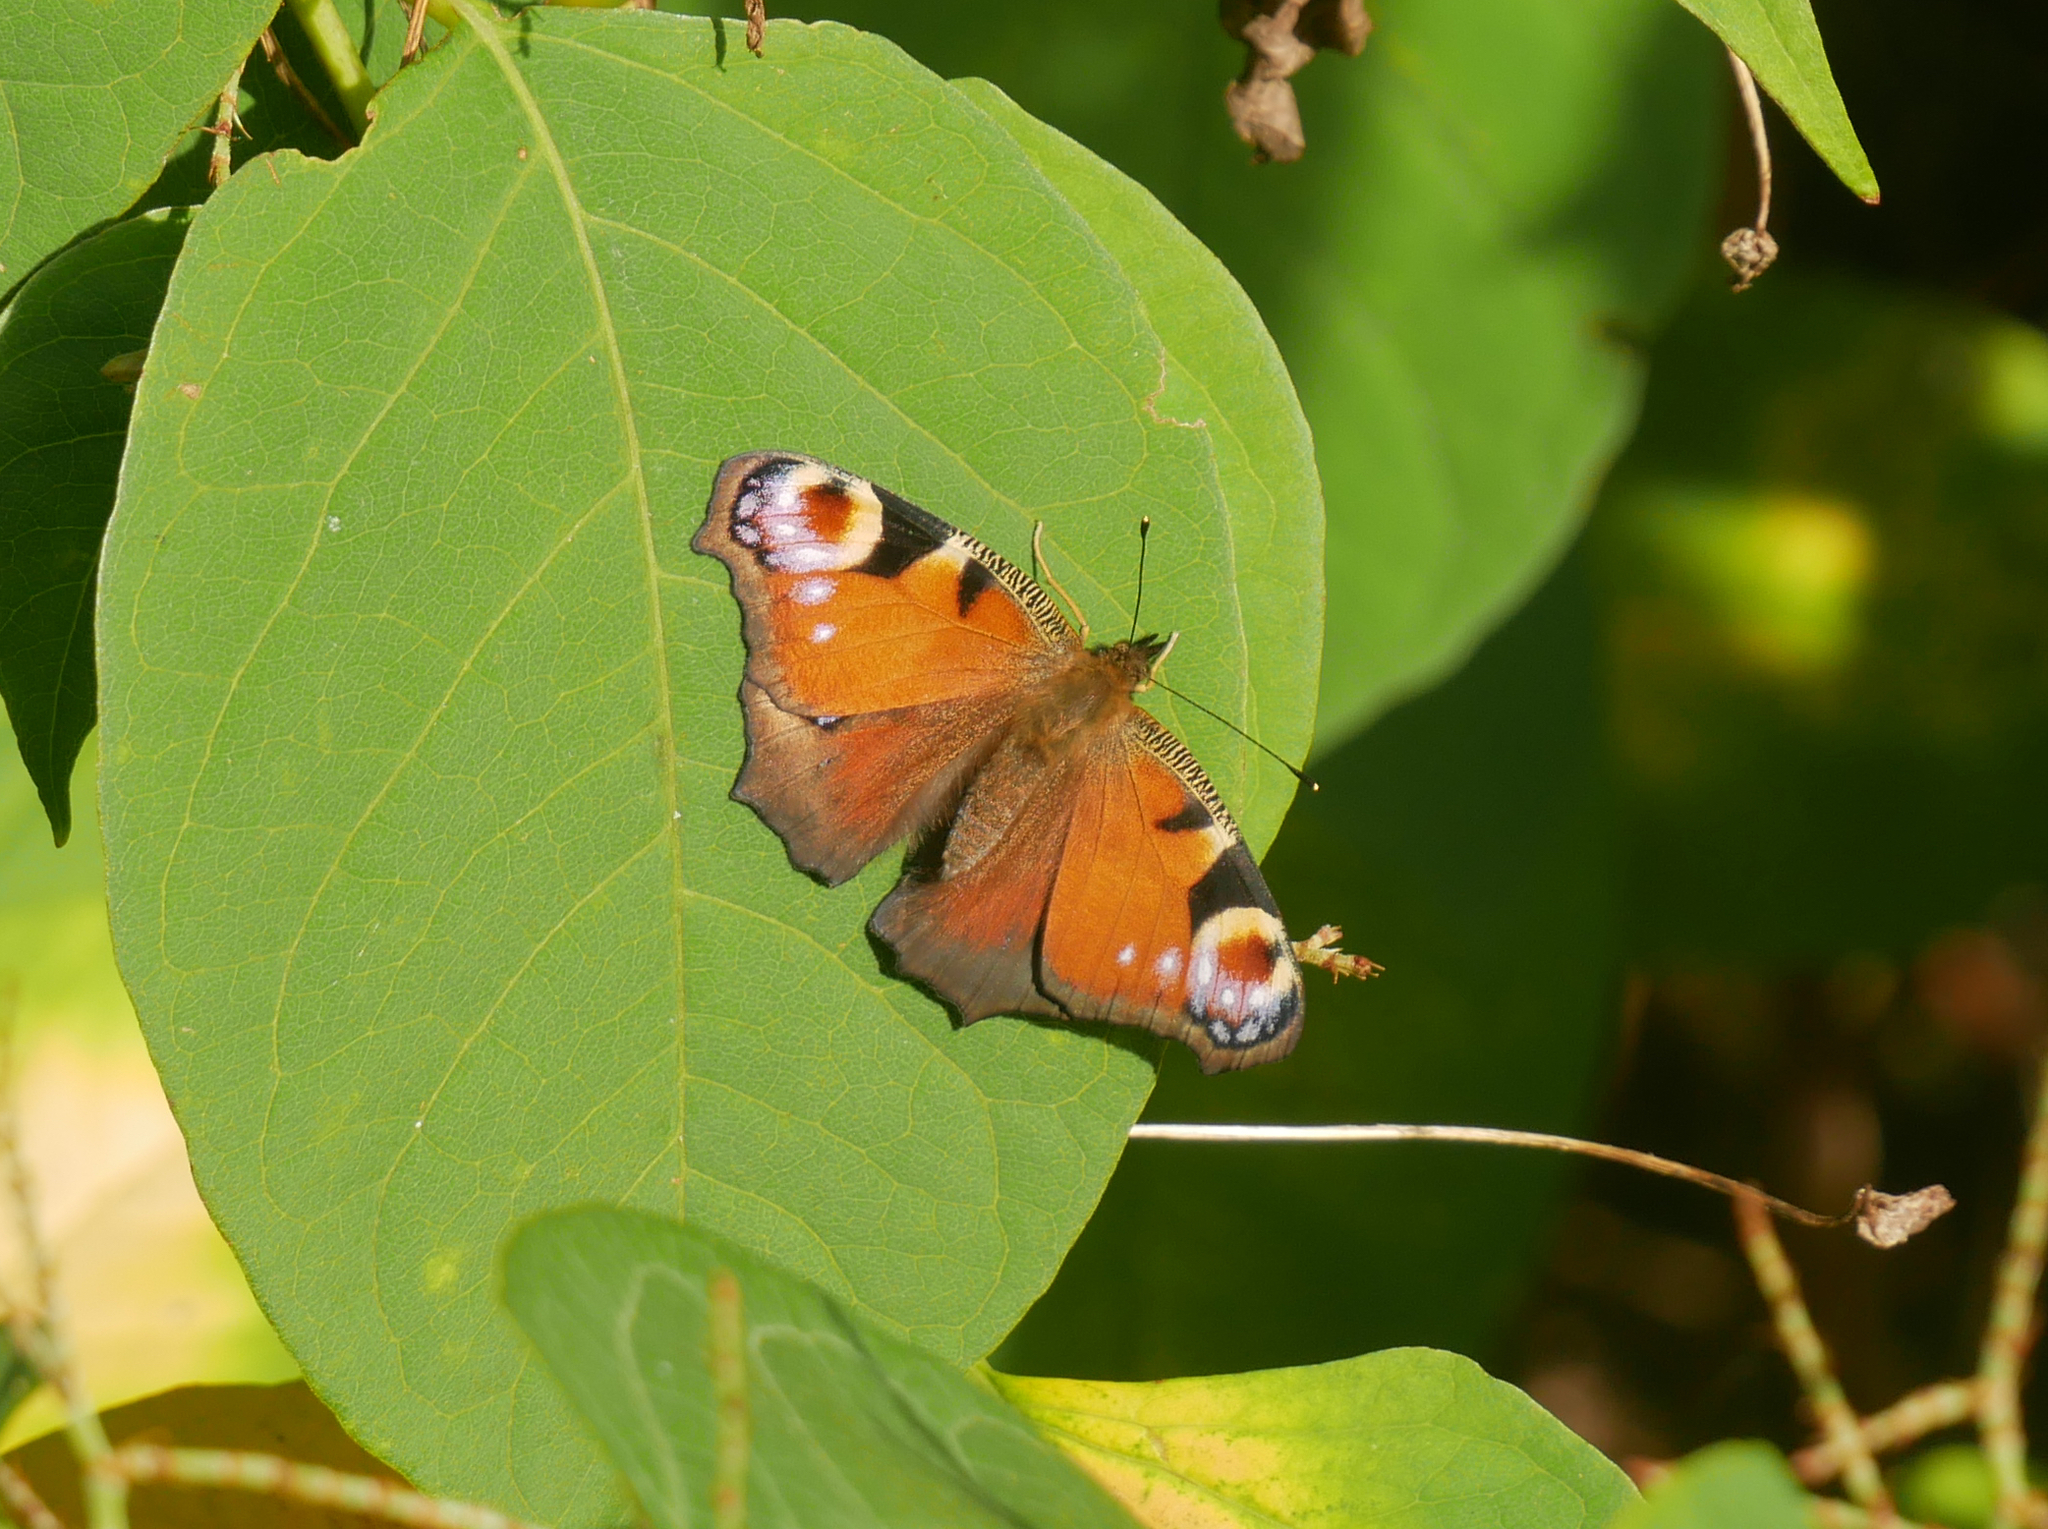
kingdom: Animalia
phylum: Arthropoda
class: Insecta
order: Lepidoptera
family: Nymphalidae
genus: Aglais
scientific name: Aglais io
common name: Peacock
